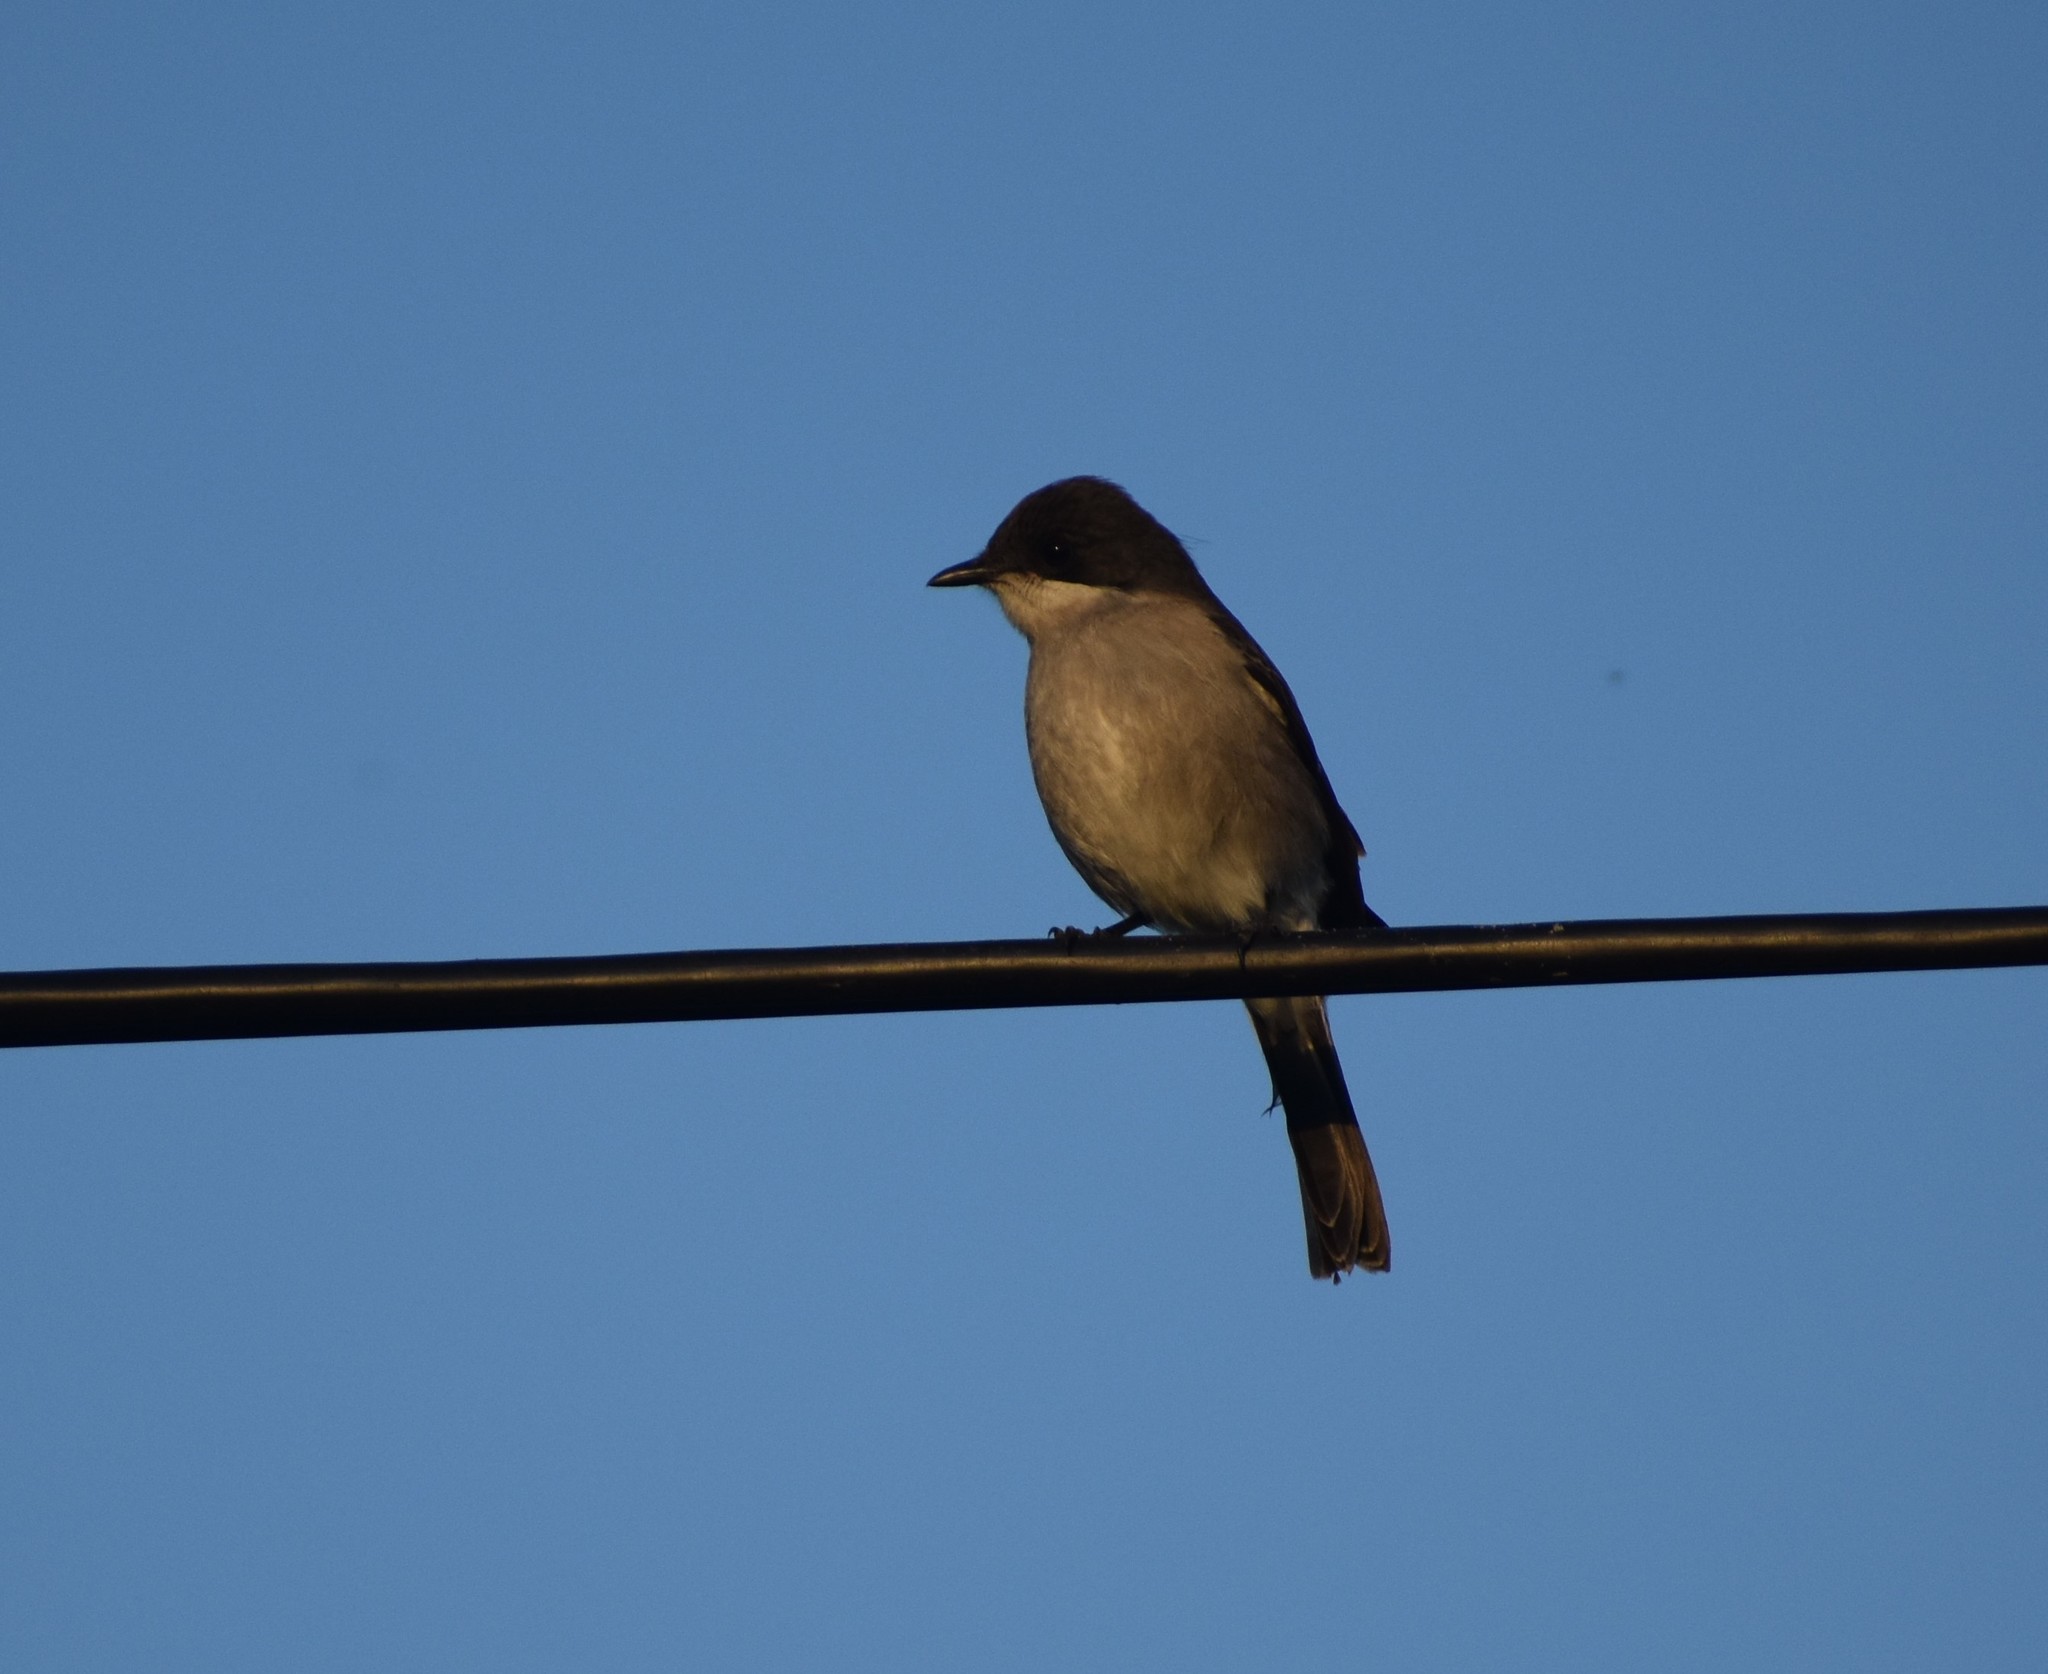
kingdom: Animalia
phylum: Chordata
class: Aves
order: Passeriformes
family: Muscicapidae
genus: Sigelus
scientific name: Sigelus silens
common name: Fiscal flycatcher
